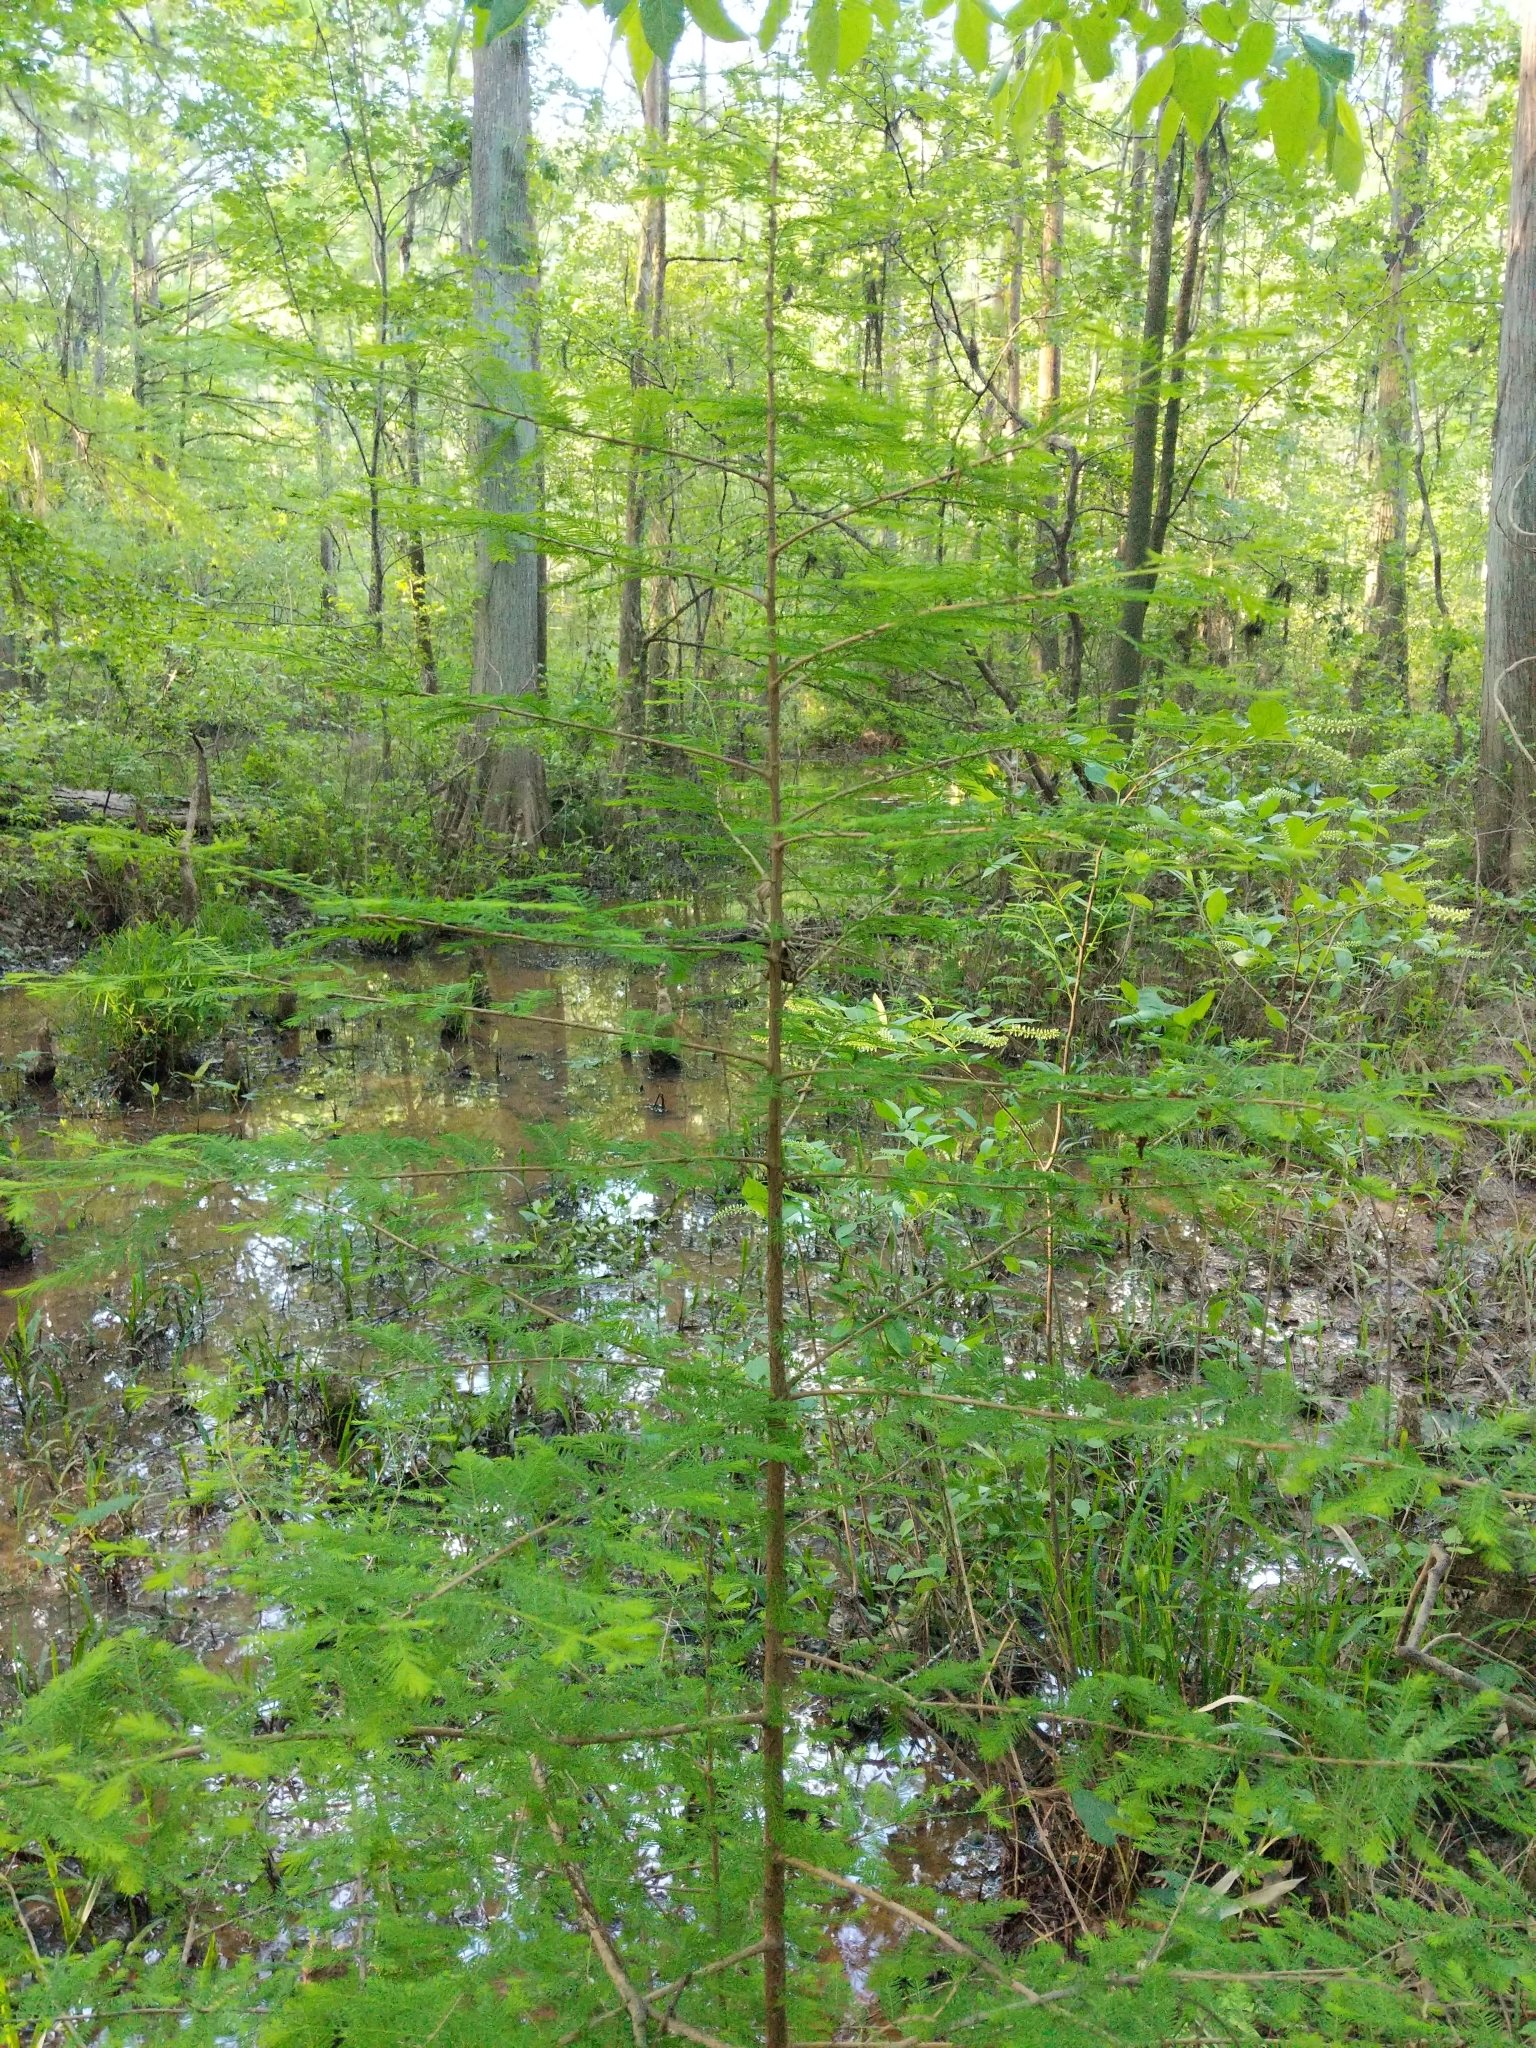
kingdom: Plantae
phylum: Tracheophyta
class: Pinopsida
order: Pinales
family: Cupressaceae
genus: Taxodium
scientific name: Taxodium distichum
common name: Bald cypress
